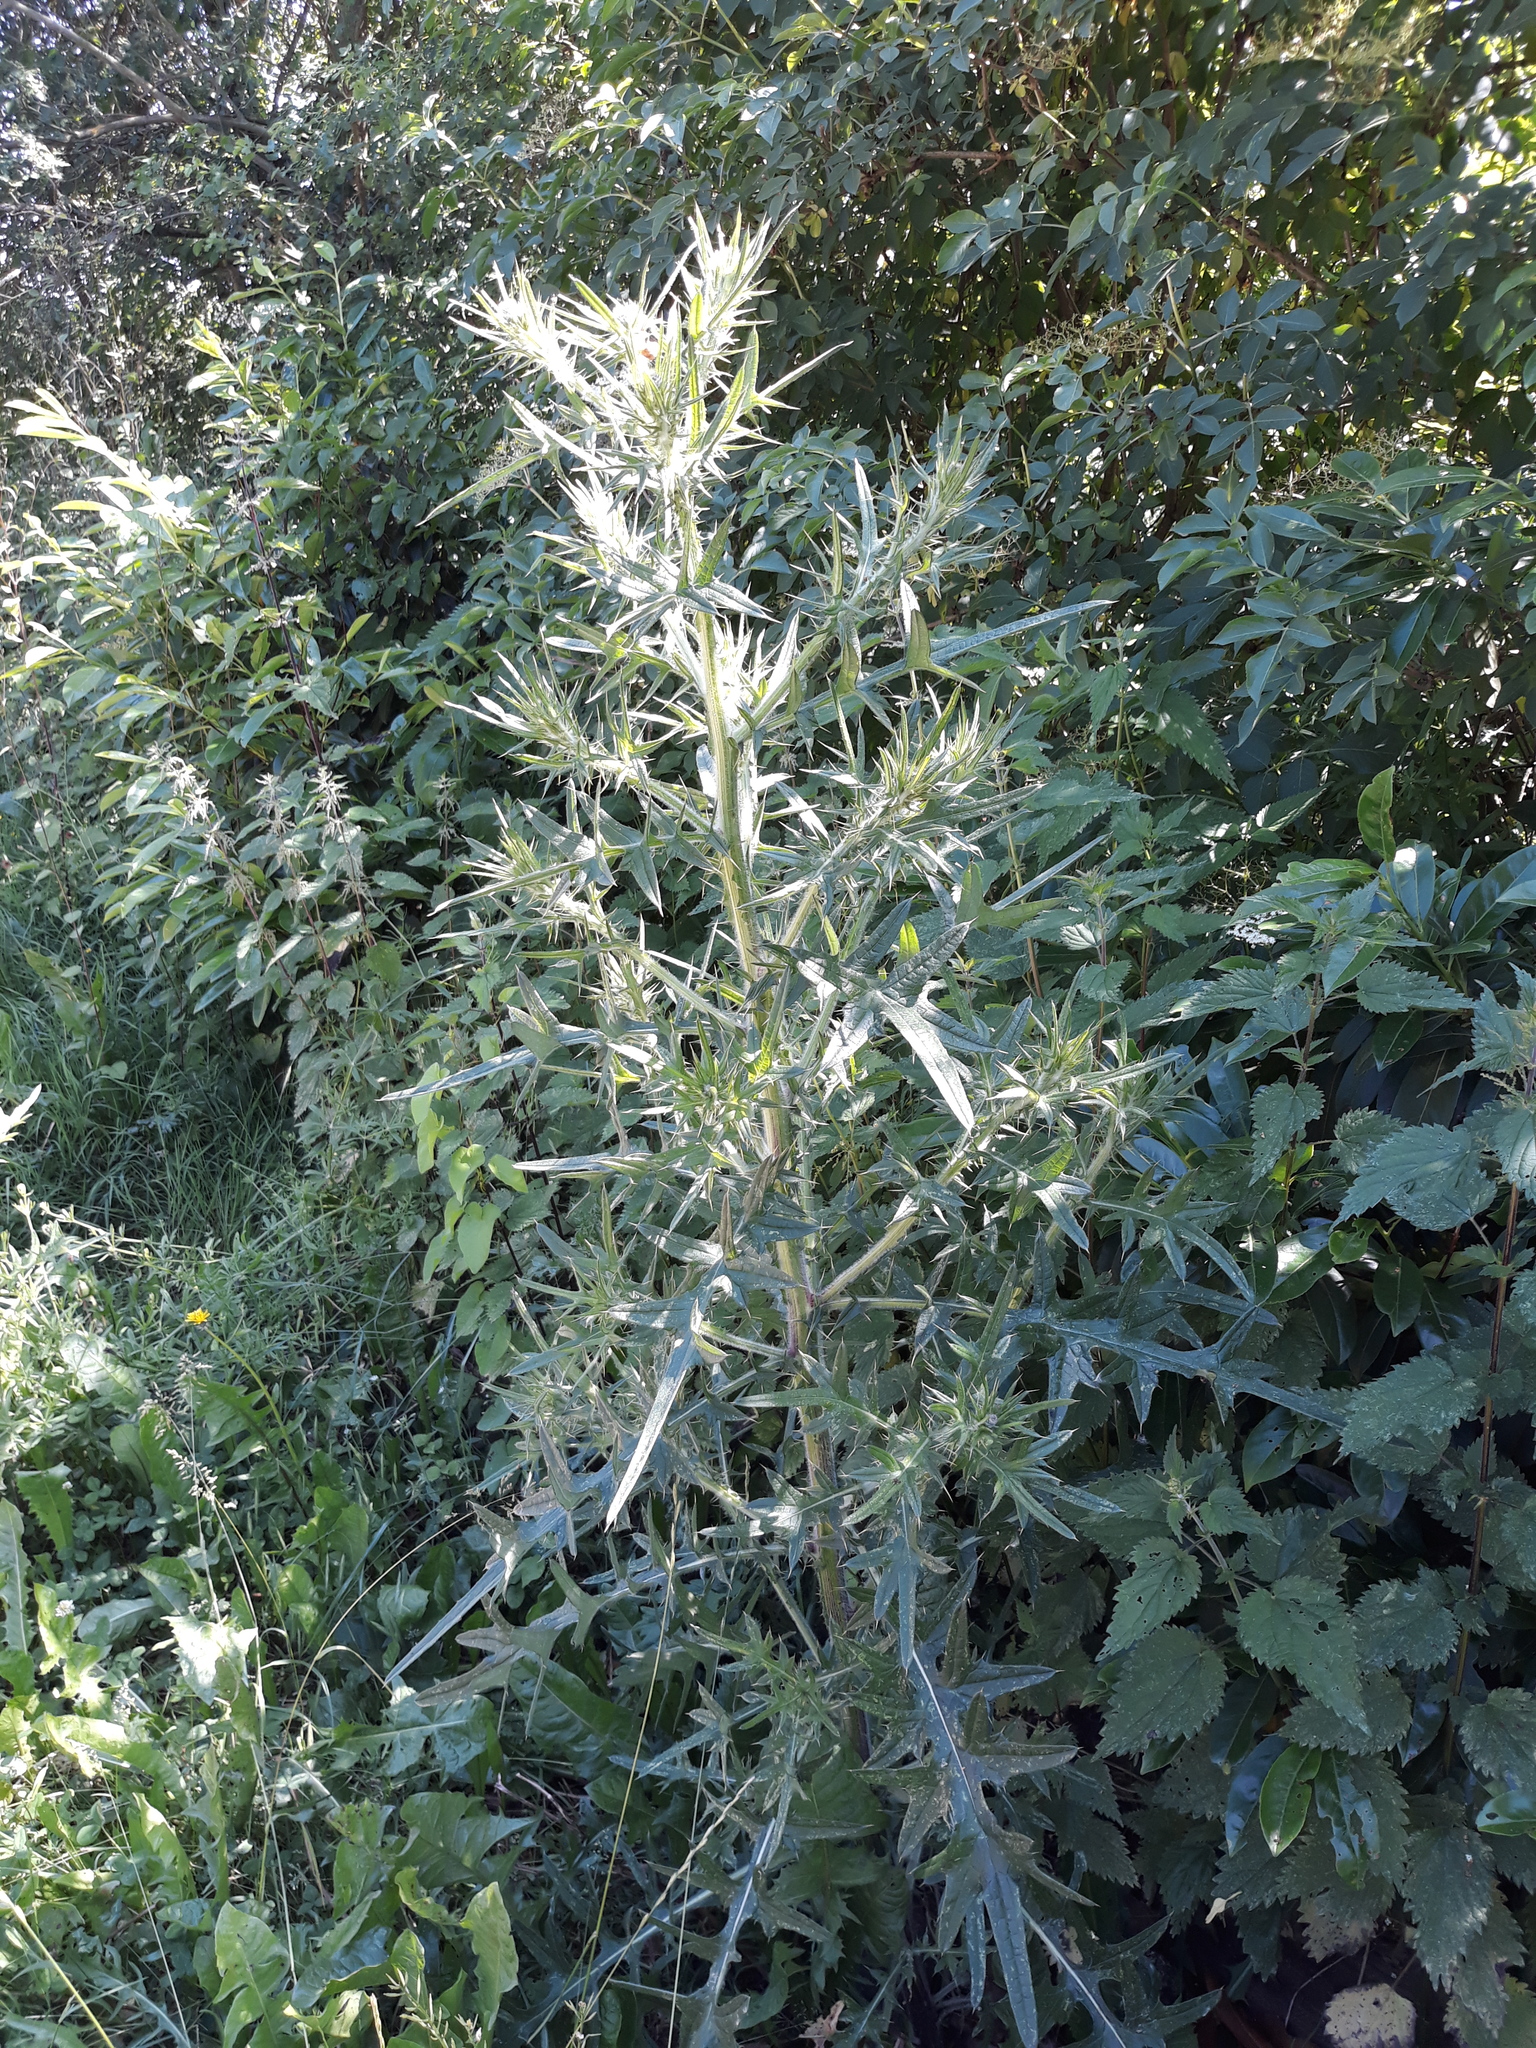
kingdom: Plantae
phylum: Tracheophyta
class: Magnoliopsida
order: Asterales
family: Asteraceae
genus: Cirsium
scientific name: Cirsium vulgare
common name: Bull thistle
